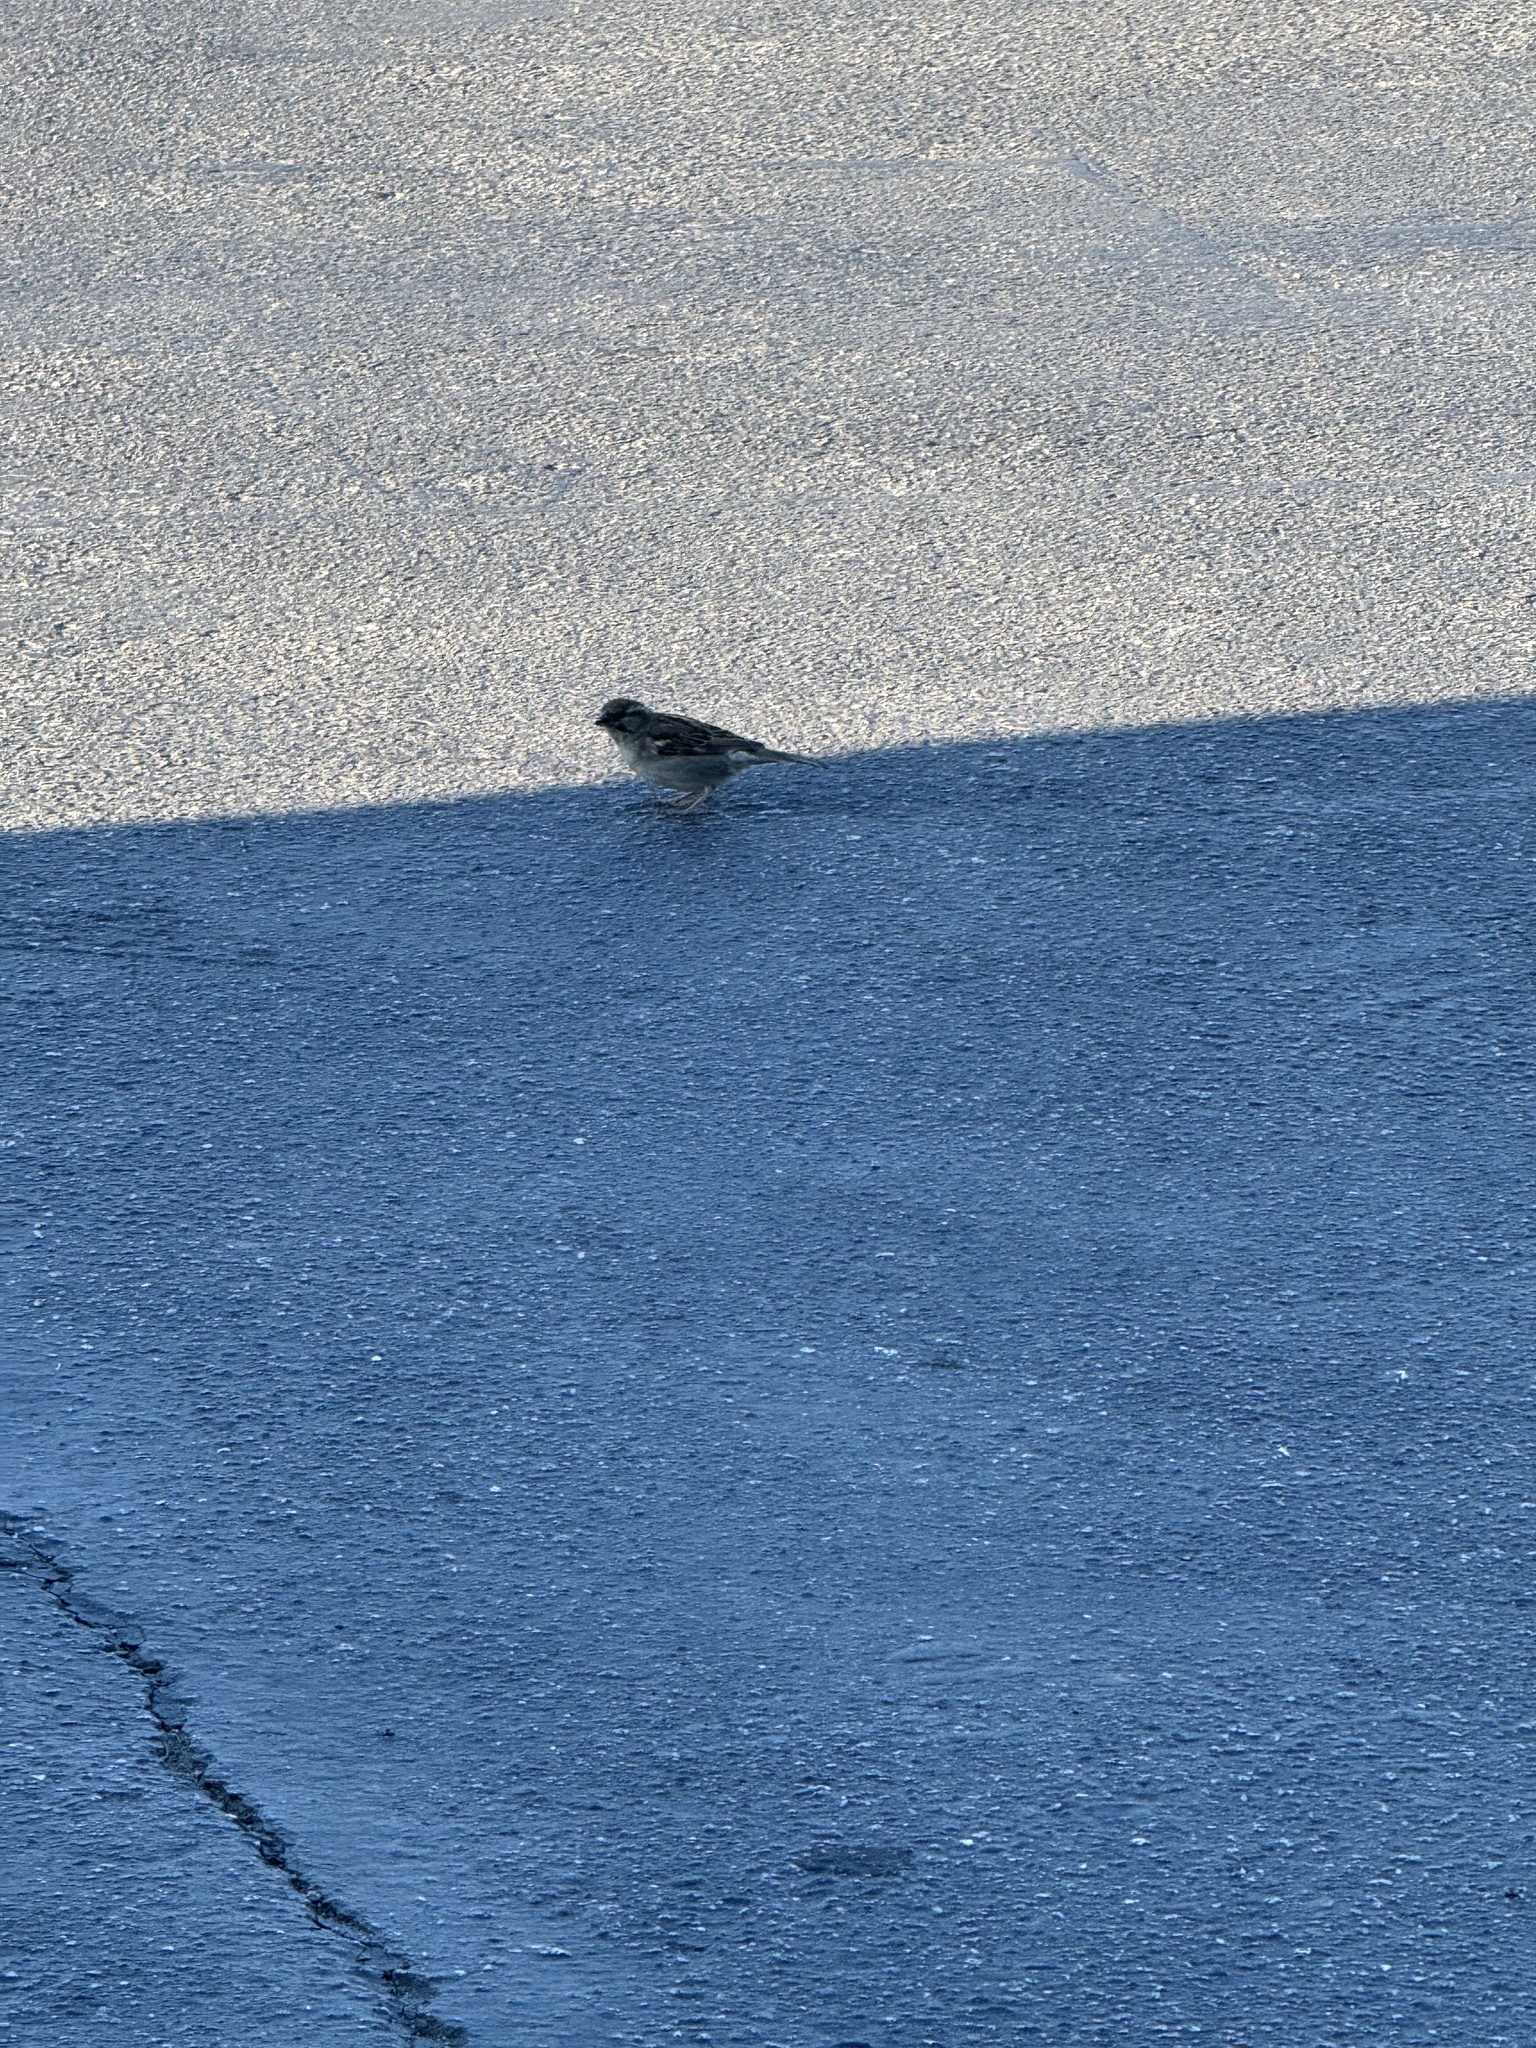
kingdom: Animalia
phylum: Chordata
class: Aves
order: Passeriformes
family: Passeridae
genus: Passer
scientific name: Passer domesticus
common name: House sparrow
